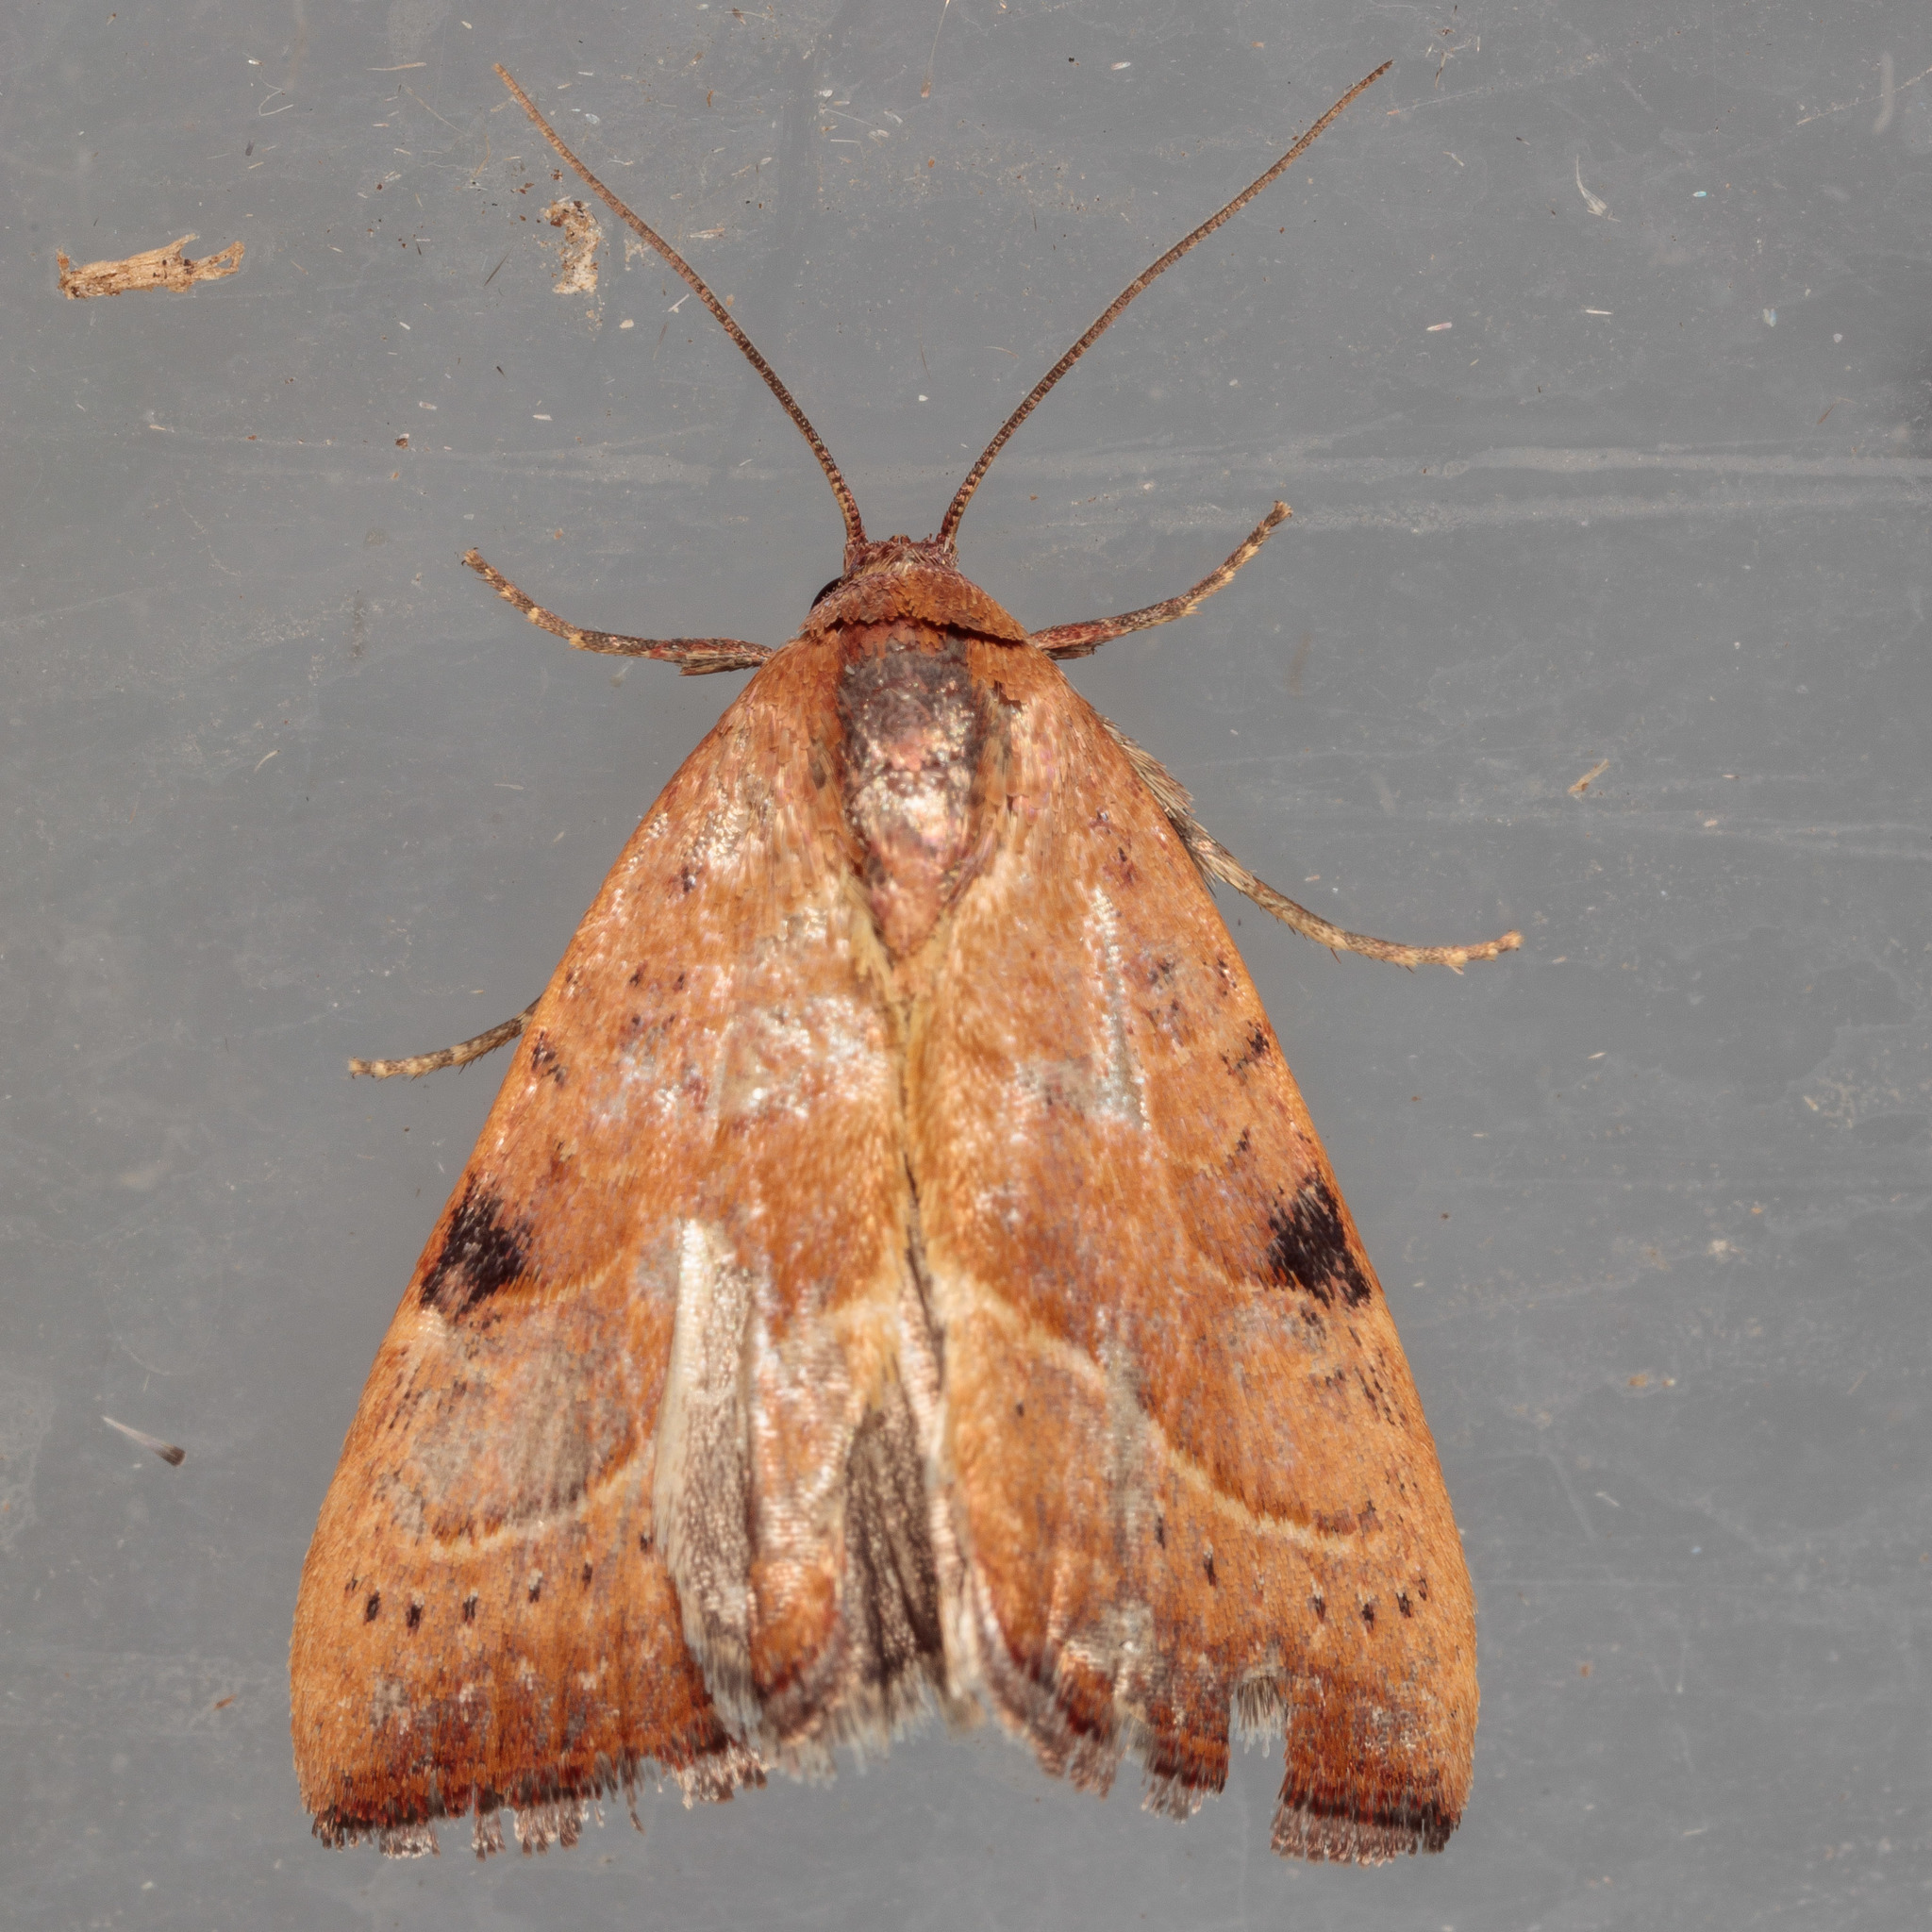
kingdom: Animalia
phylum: Arthropoda
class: Insecta
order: Lepidoptera
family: Noctuidae
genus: Galgula
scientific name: Galgula partita
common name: Wedgeling
